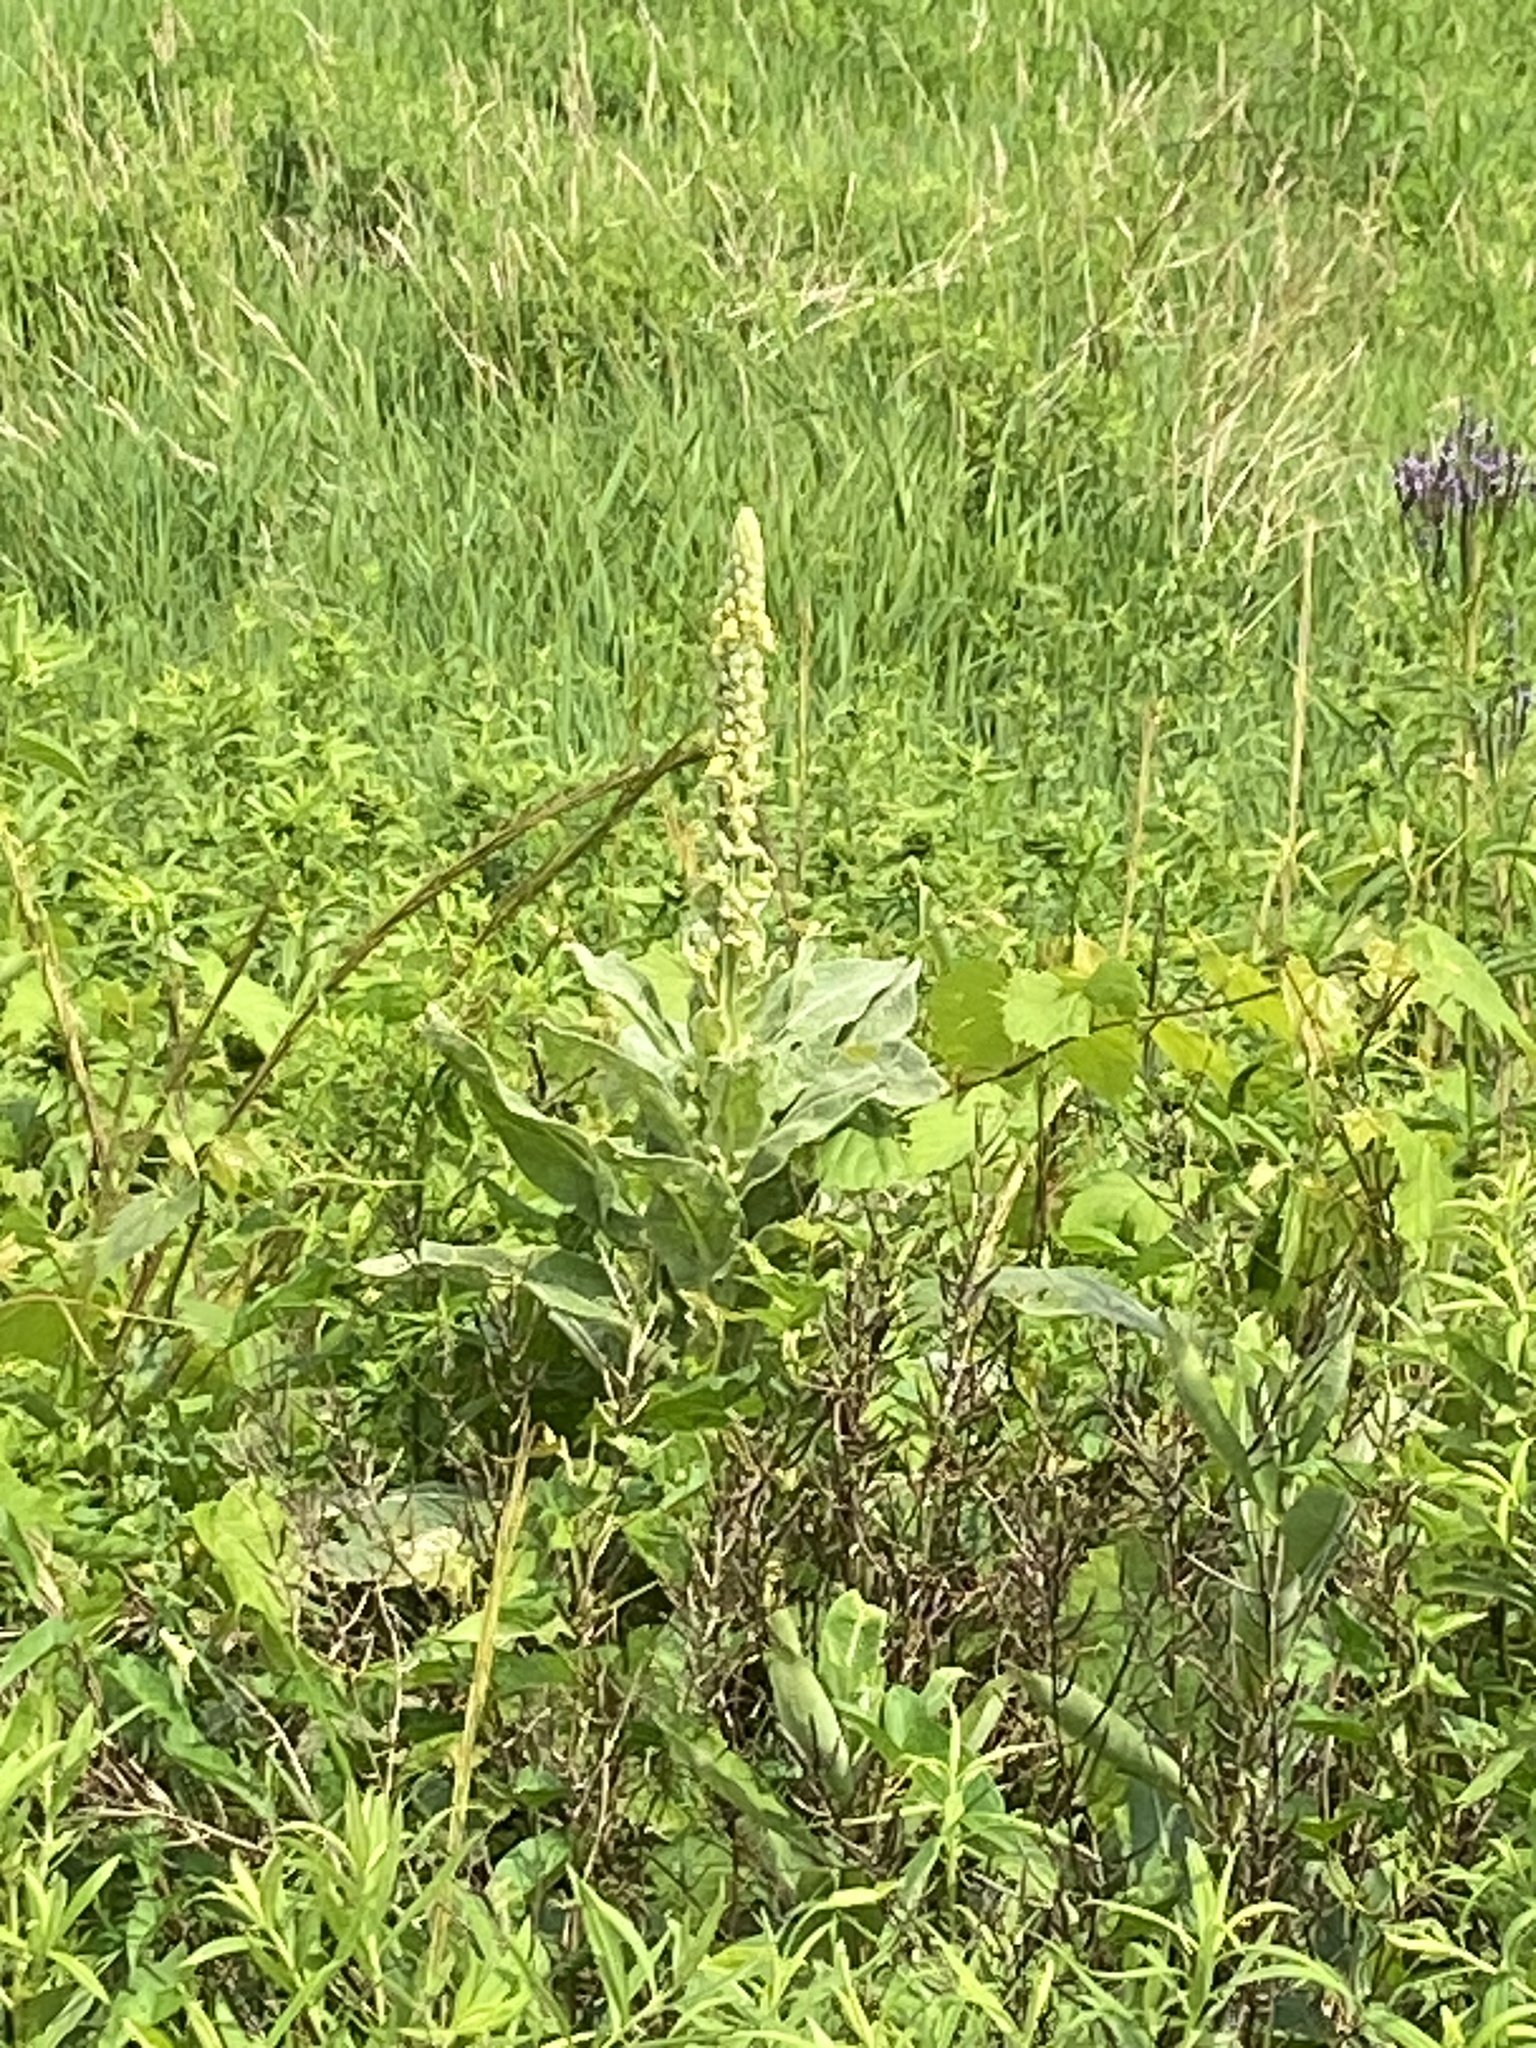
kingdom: Plantae
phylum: Tracheophyta
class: Magnoliopsida
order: Lamiales
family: Scrophulariaceae
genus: Verbascum
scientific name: Verbascum thapsus
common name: Common mullein
